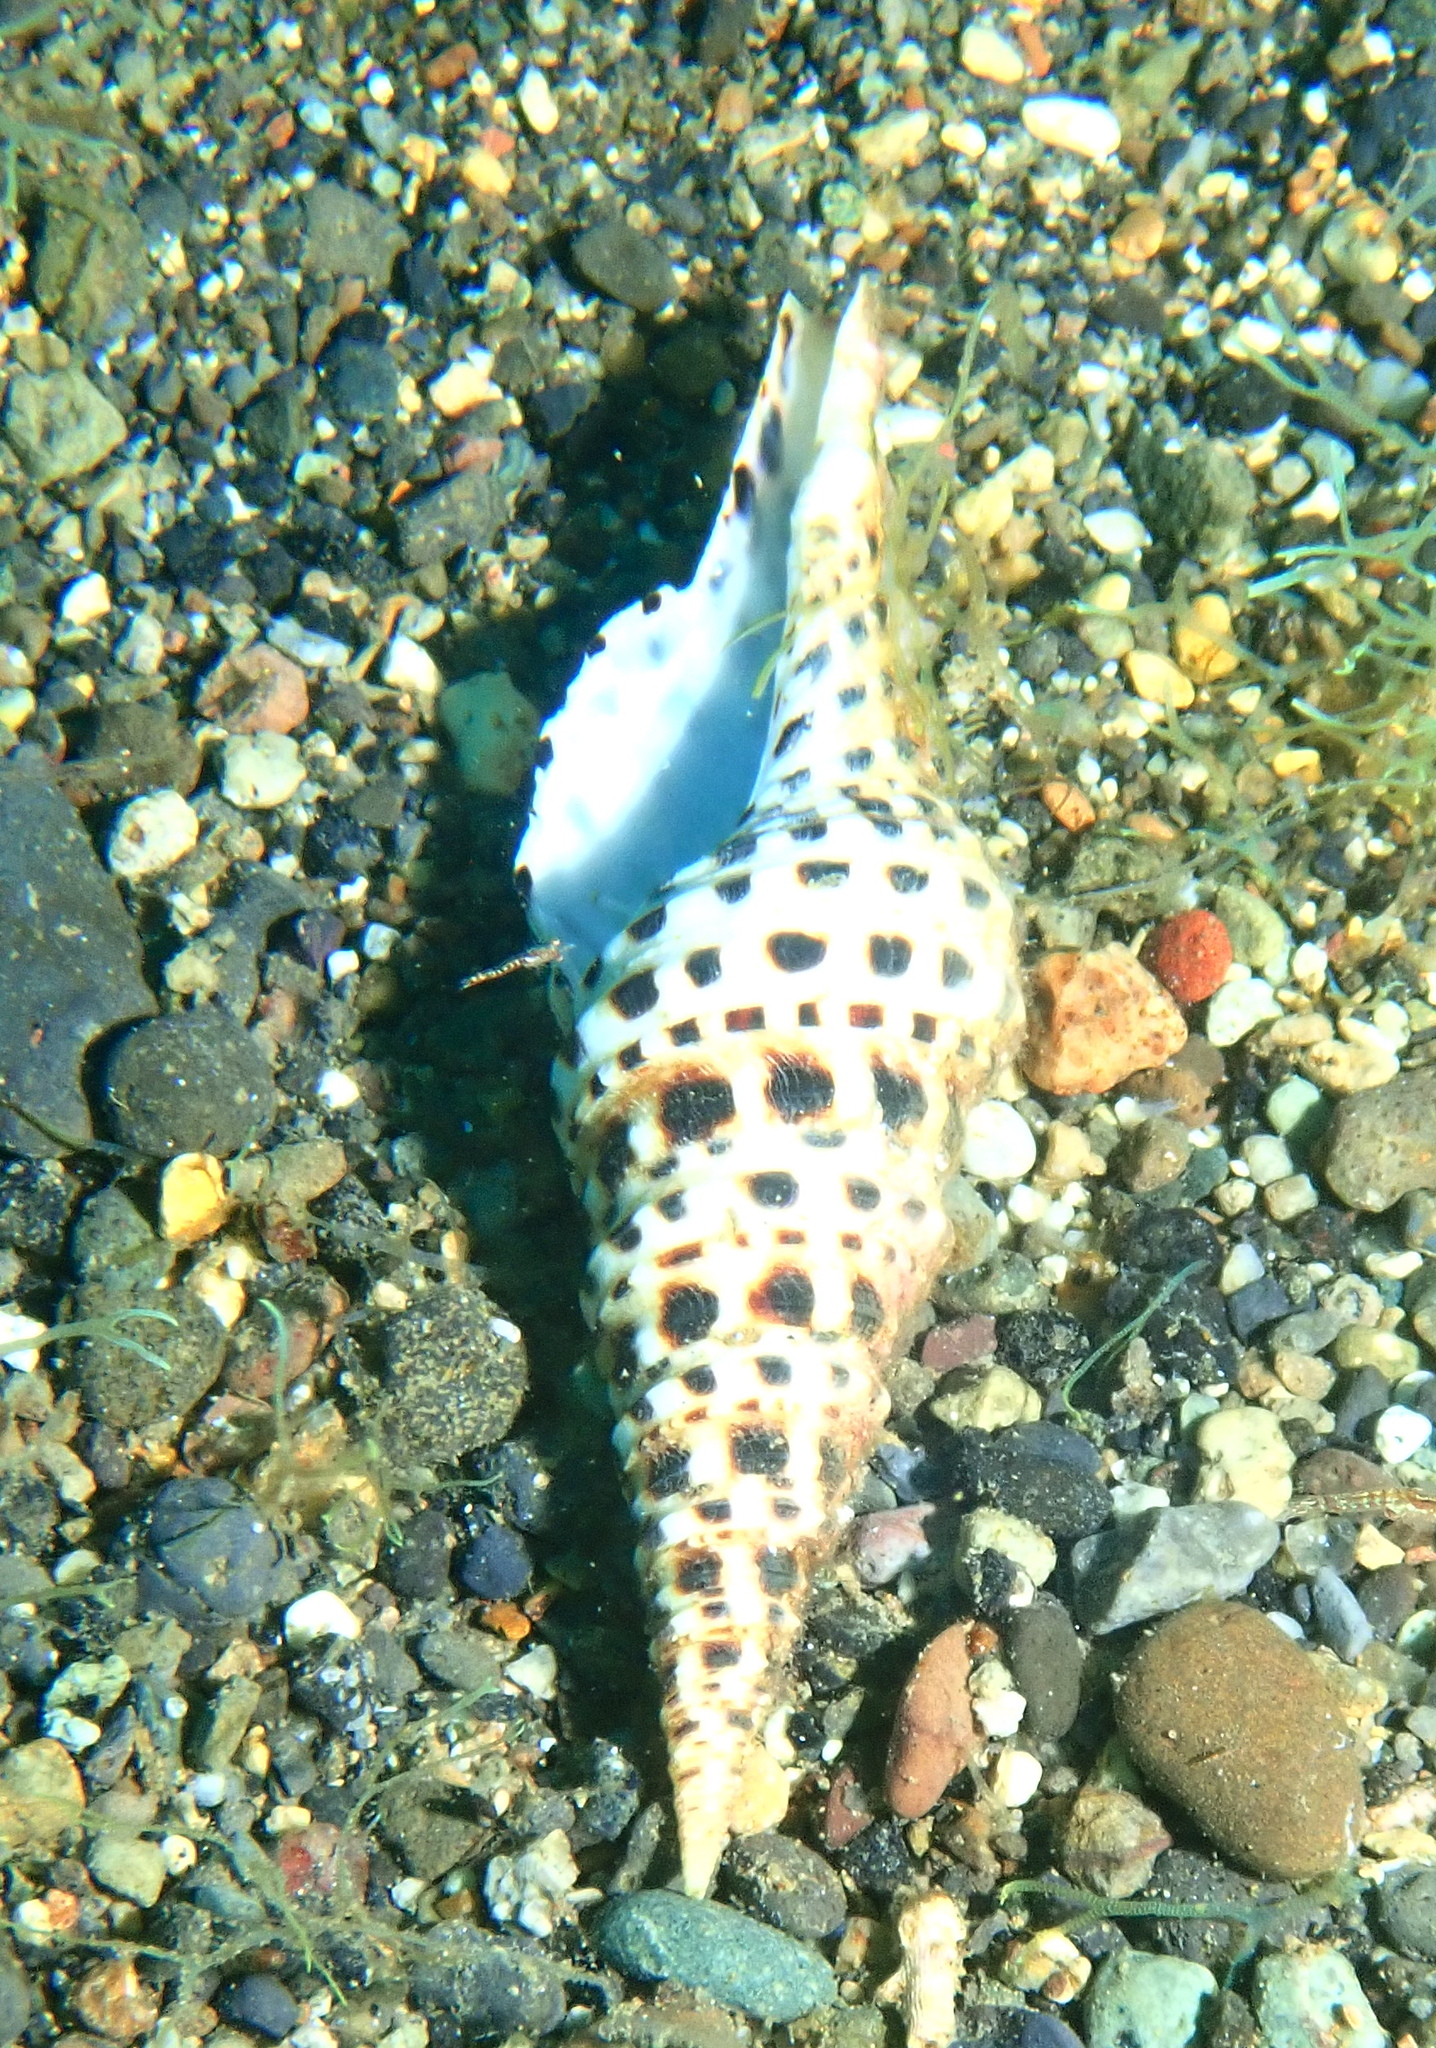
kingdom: Animalia
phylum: Mollusca
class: Gastropoda
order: Neogastropoda
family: Turridae
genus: Turris
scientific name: Turris spectabilis
